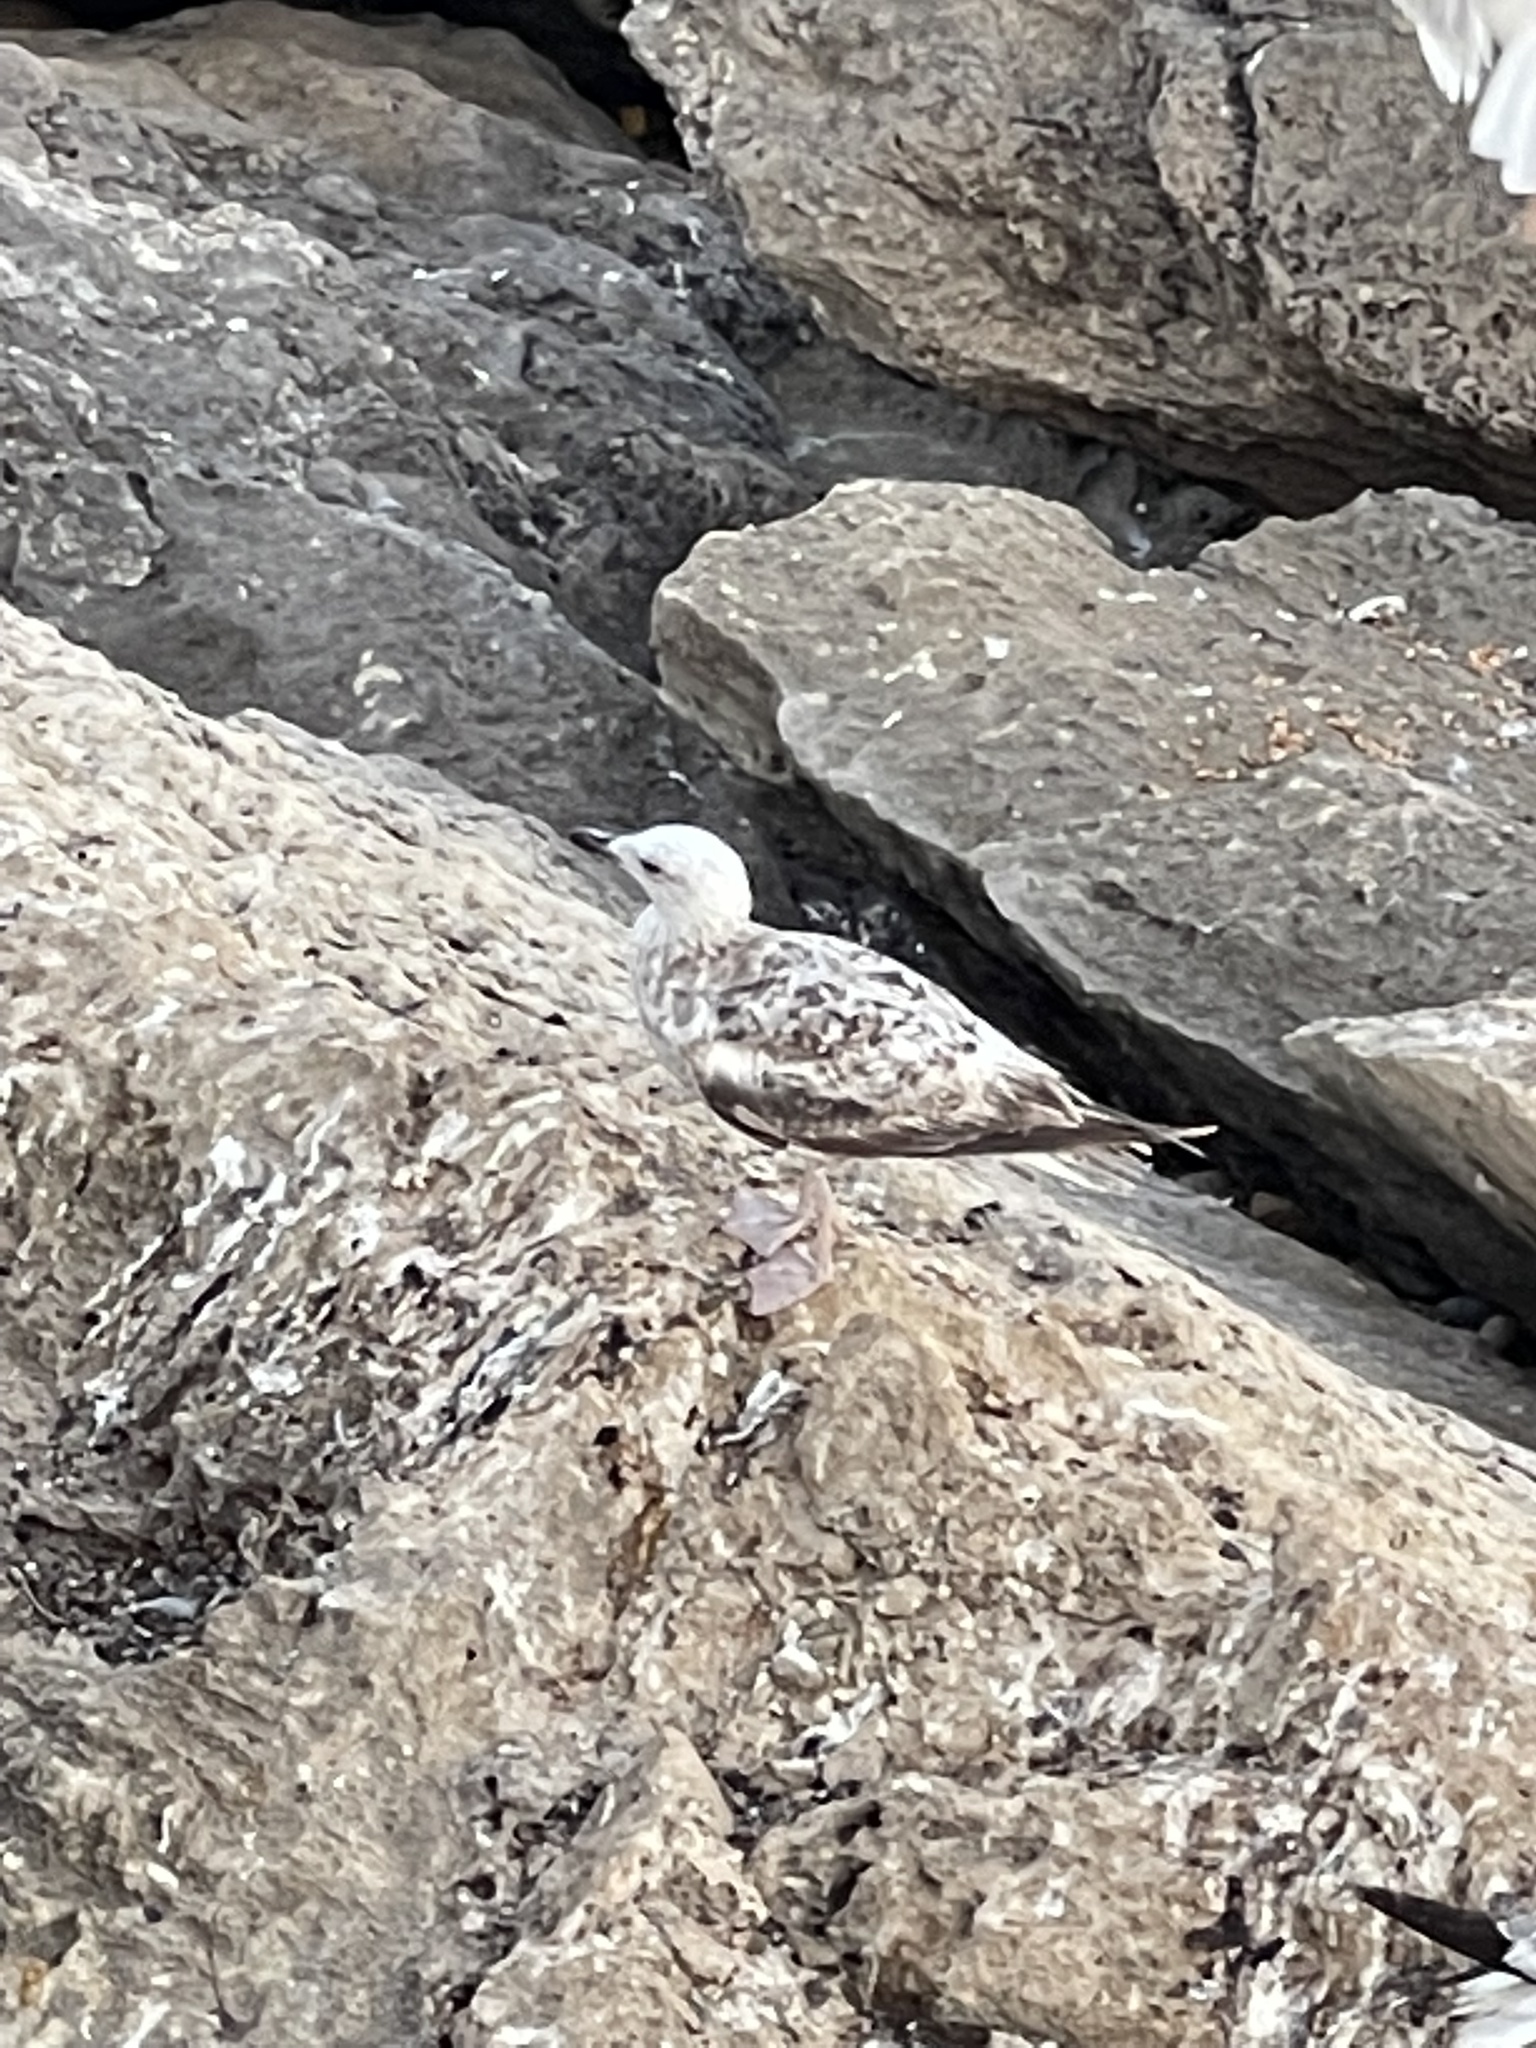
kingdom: Animalia
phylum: Chordata
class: Aves
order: Charadriiformes
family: Laridae
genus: Larus
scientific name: Larus michahellis
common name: Yellow-legged gull
